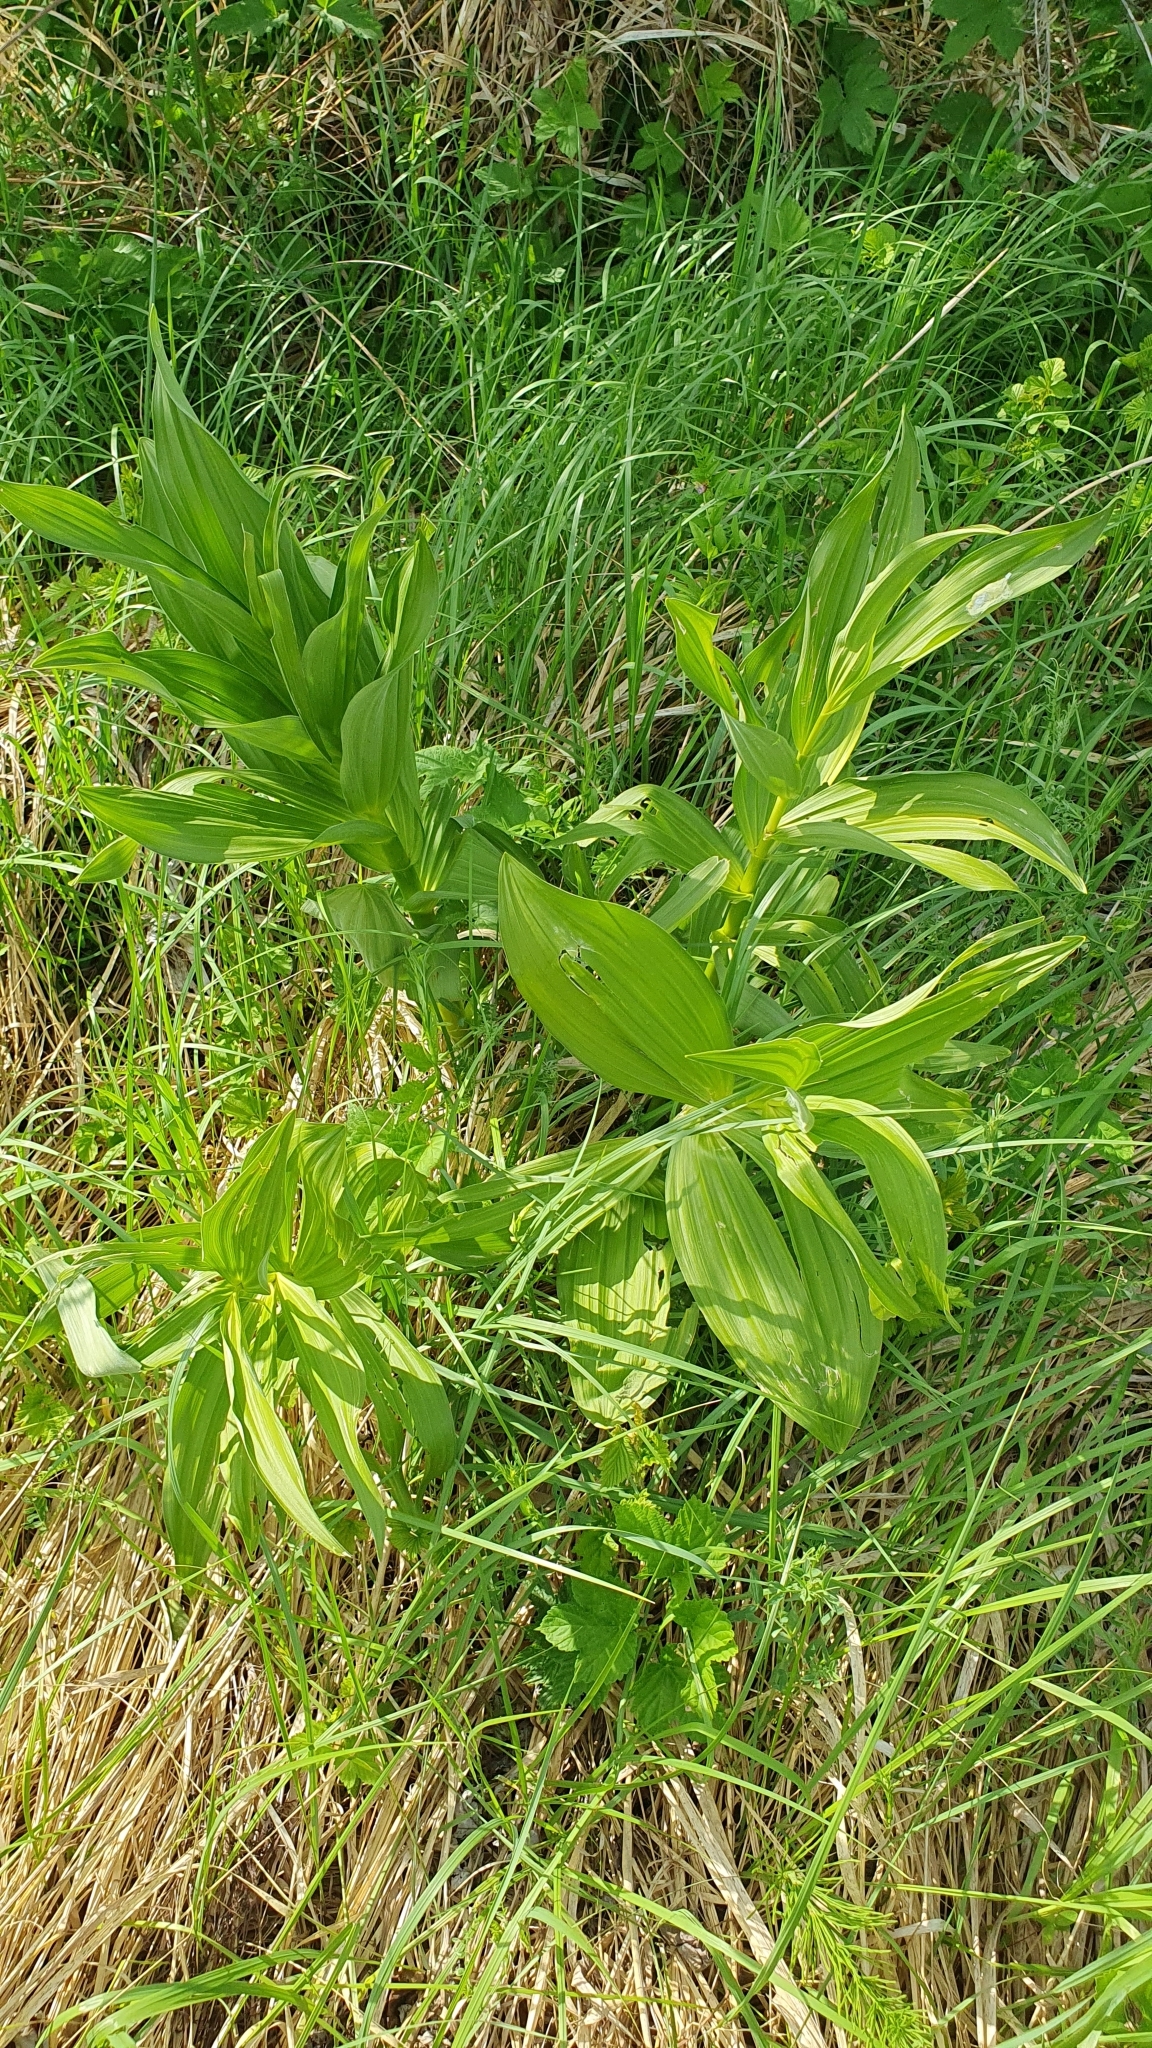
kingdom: Plantae
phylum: Tracheophyta
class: Liliopsida
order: Liliales
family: Melanthiaceae
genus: Veratrum
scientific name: Veratrum lobelianum
